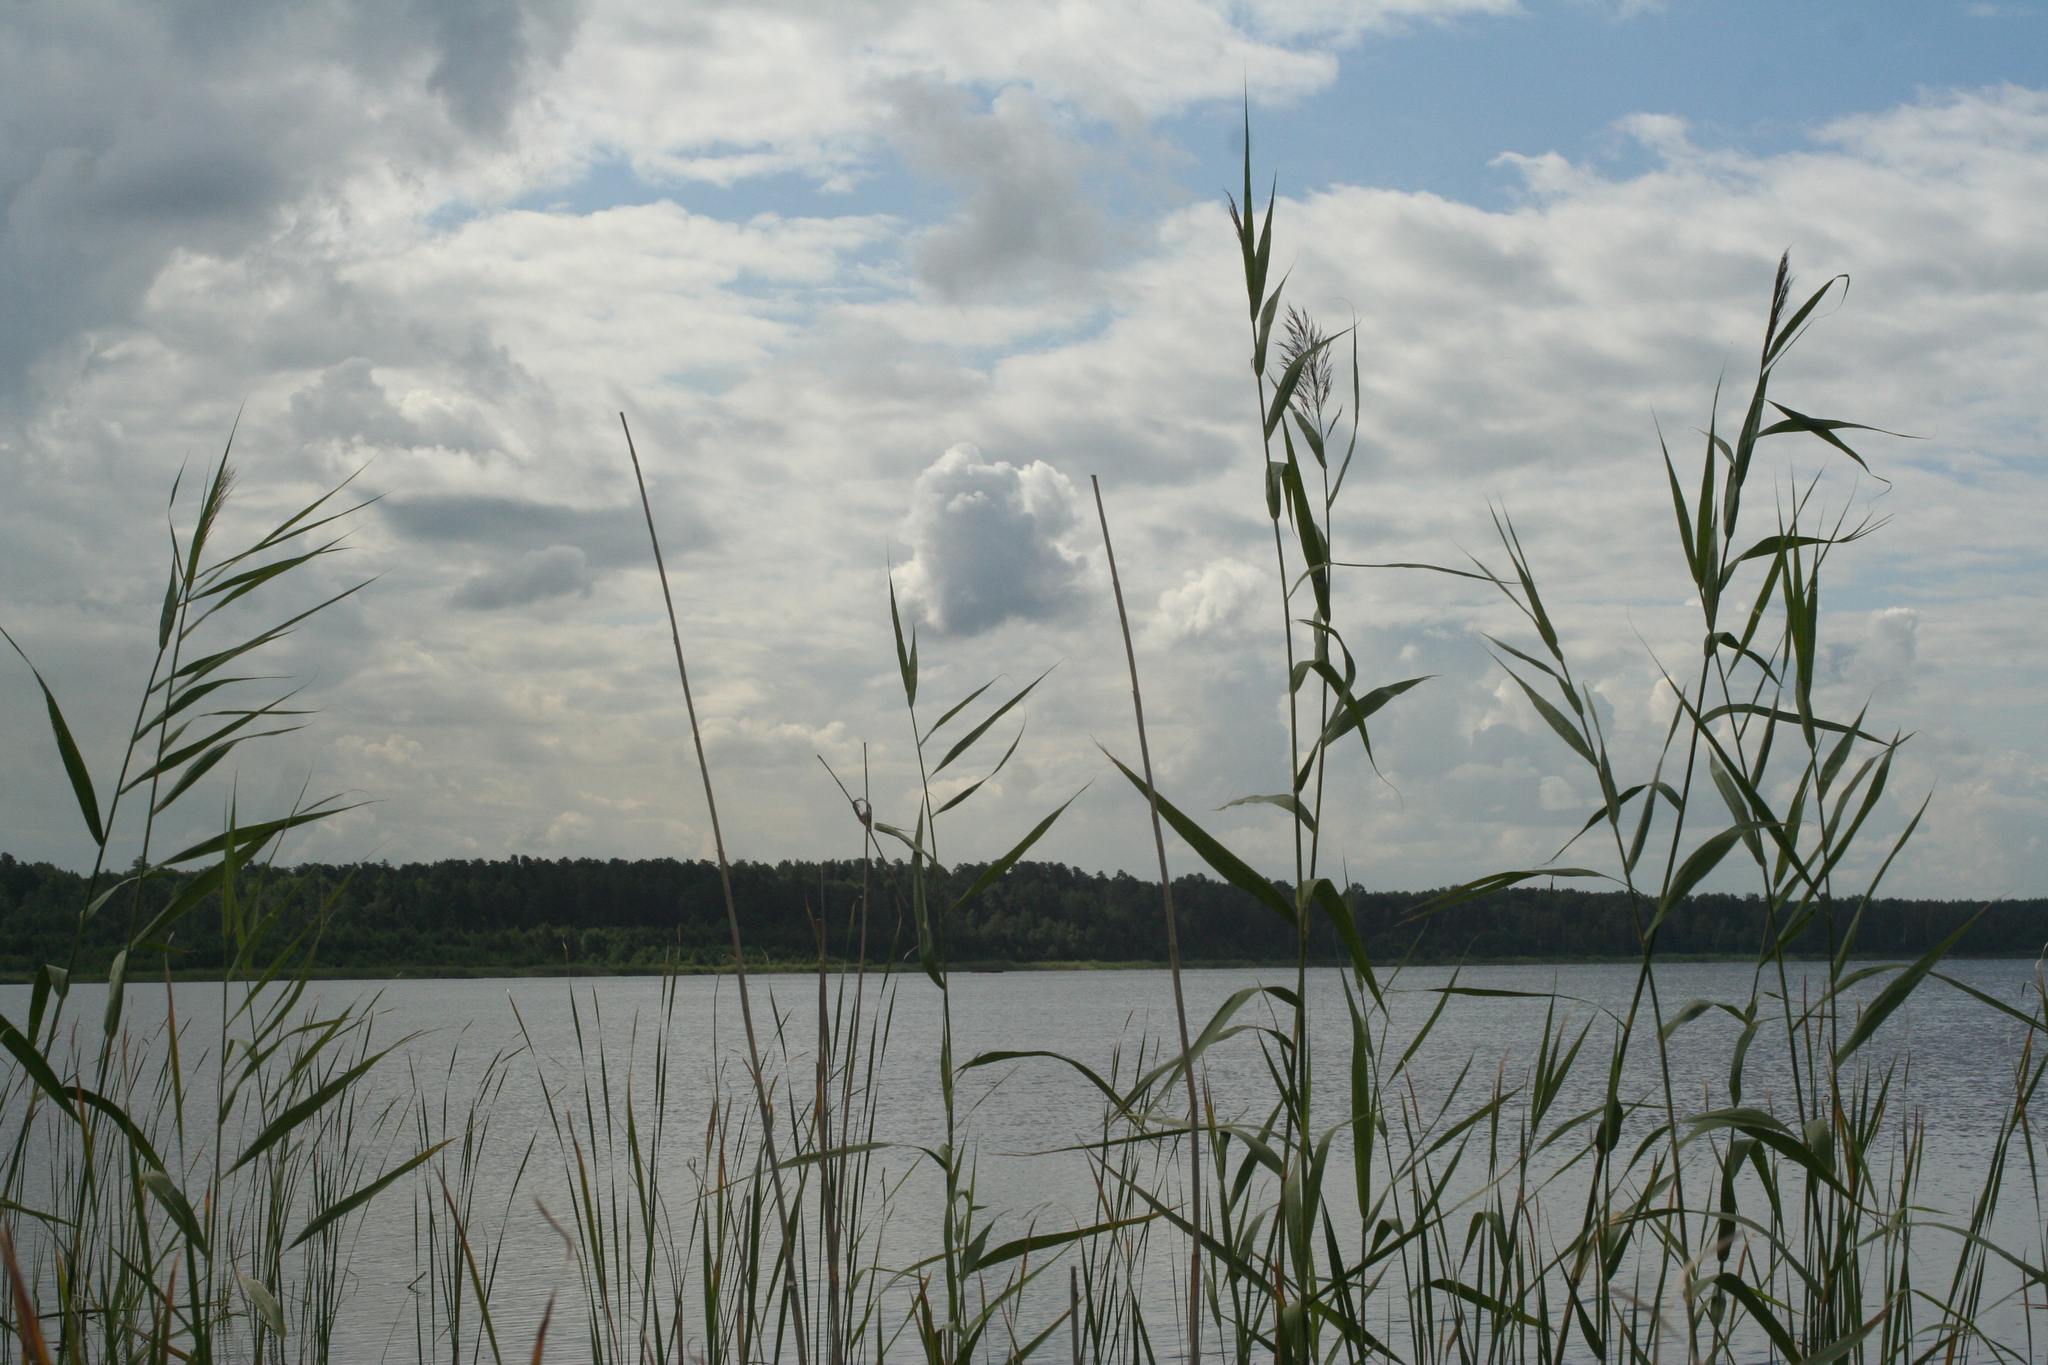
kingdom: Plantae
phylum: Tracheophyta
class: Liliopsida
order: Poales
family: Poaceae
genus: Phragmites
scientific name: Phragmites australis
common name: Common reed
